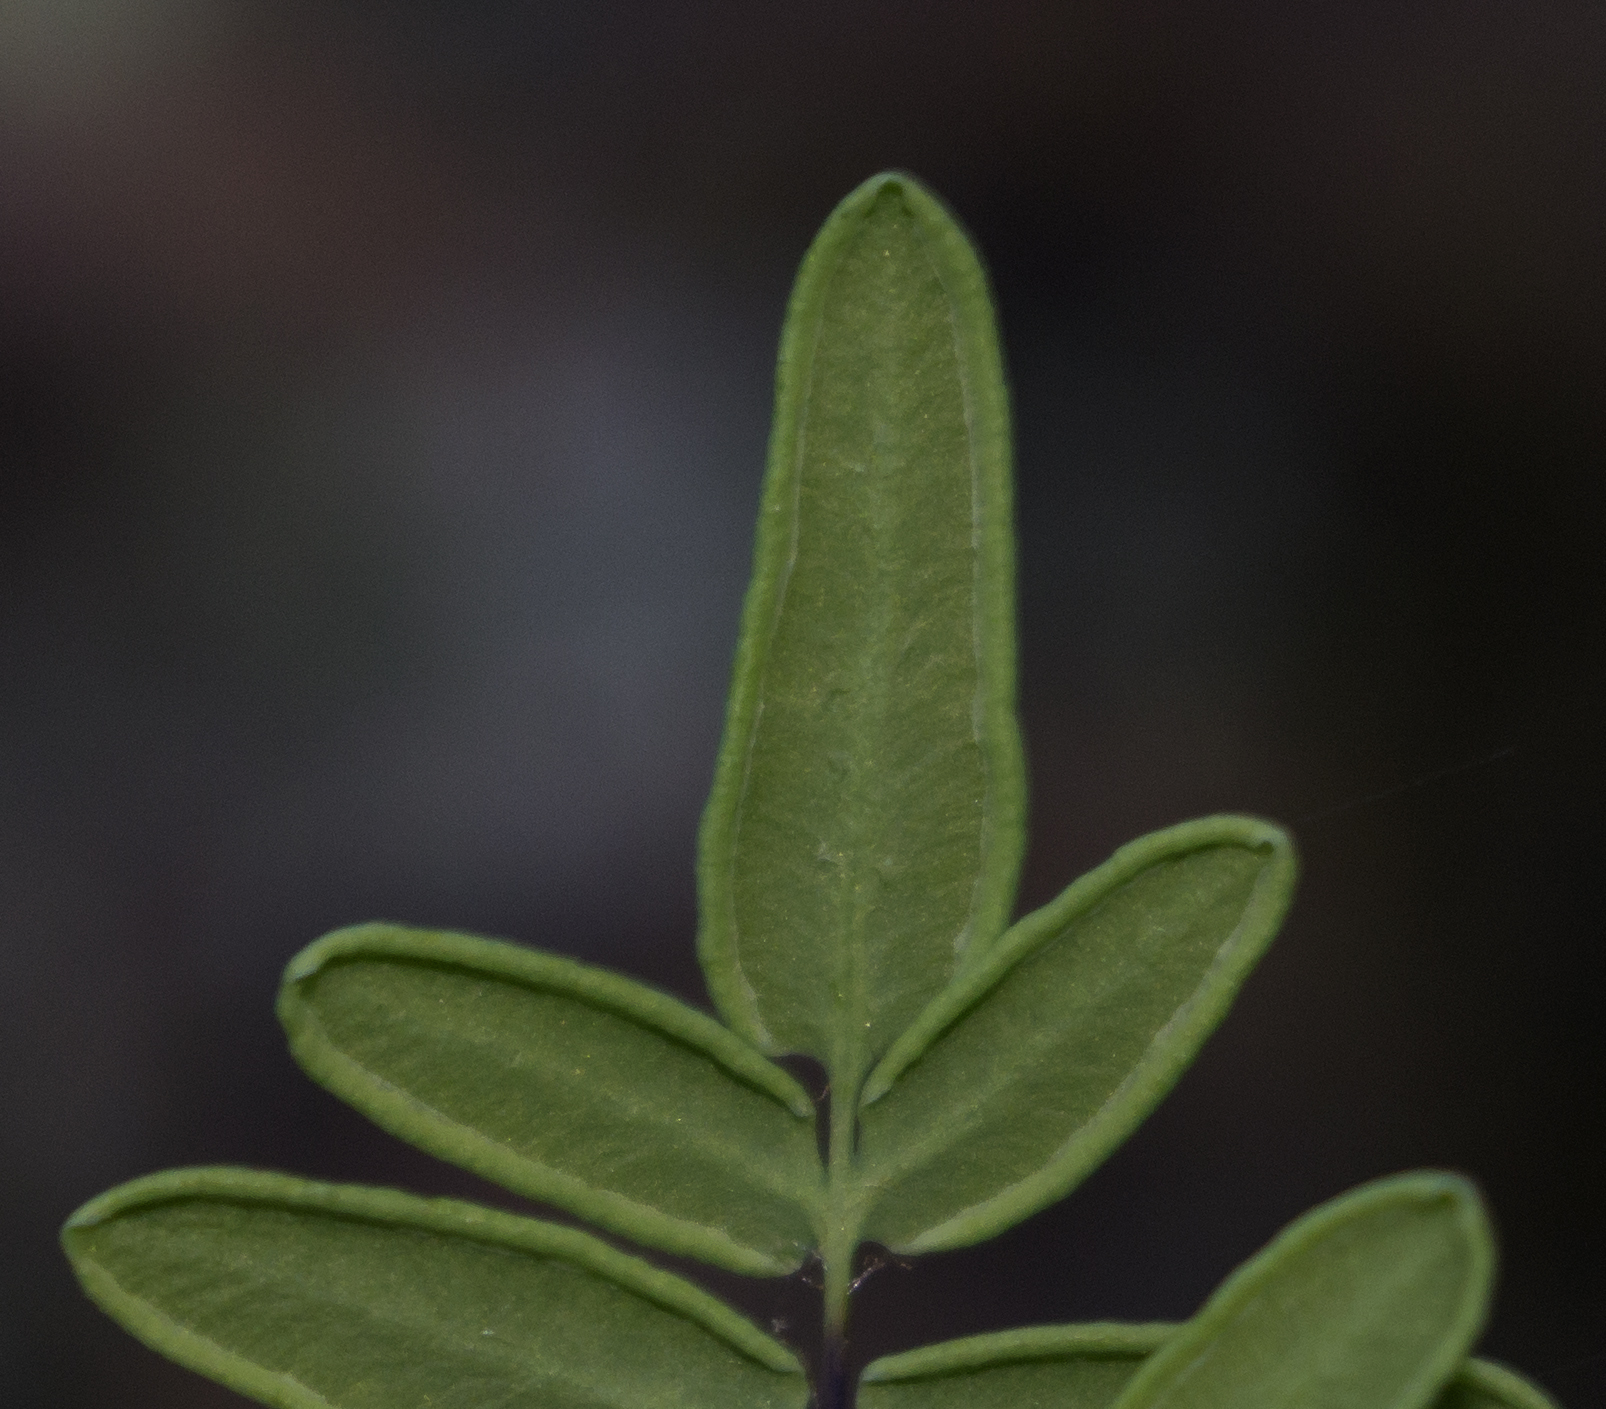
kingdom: Plantae
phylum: Tracheophyta
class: Polypodiopsida
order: Polypodiales
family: Pteridaceae
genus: Pellaea
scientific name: Pellaea glabella
